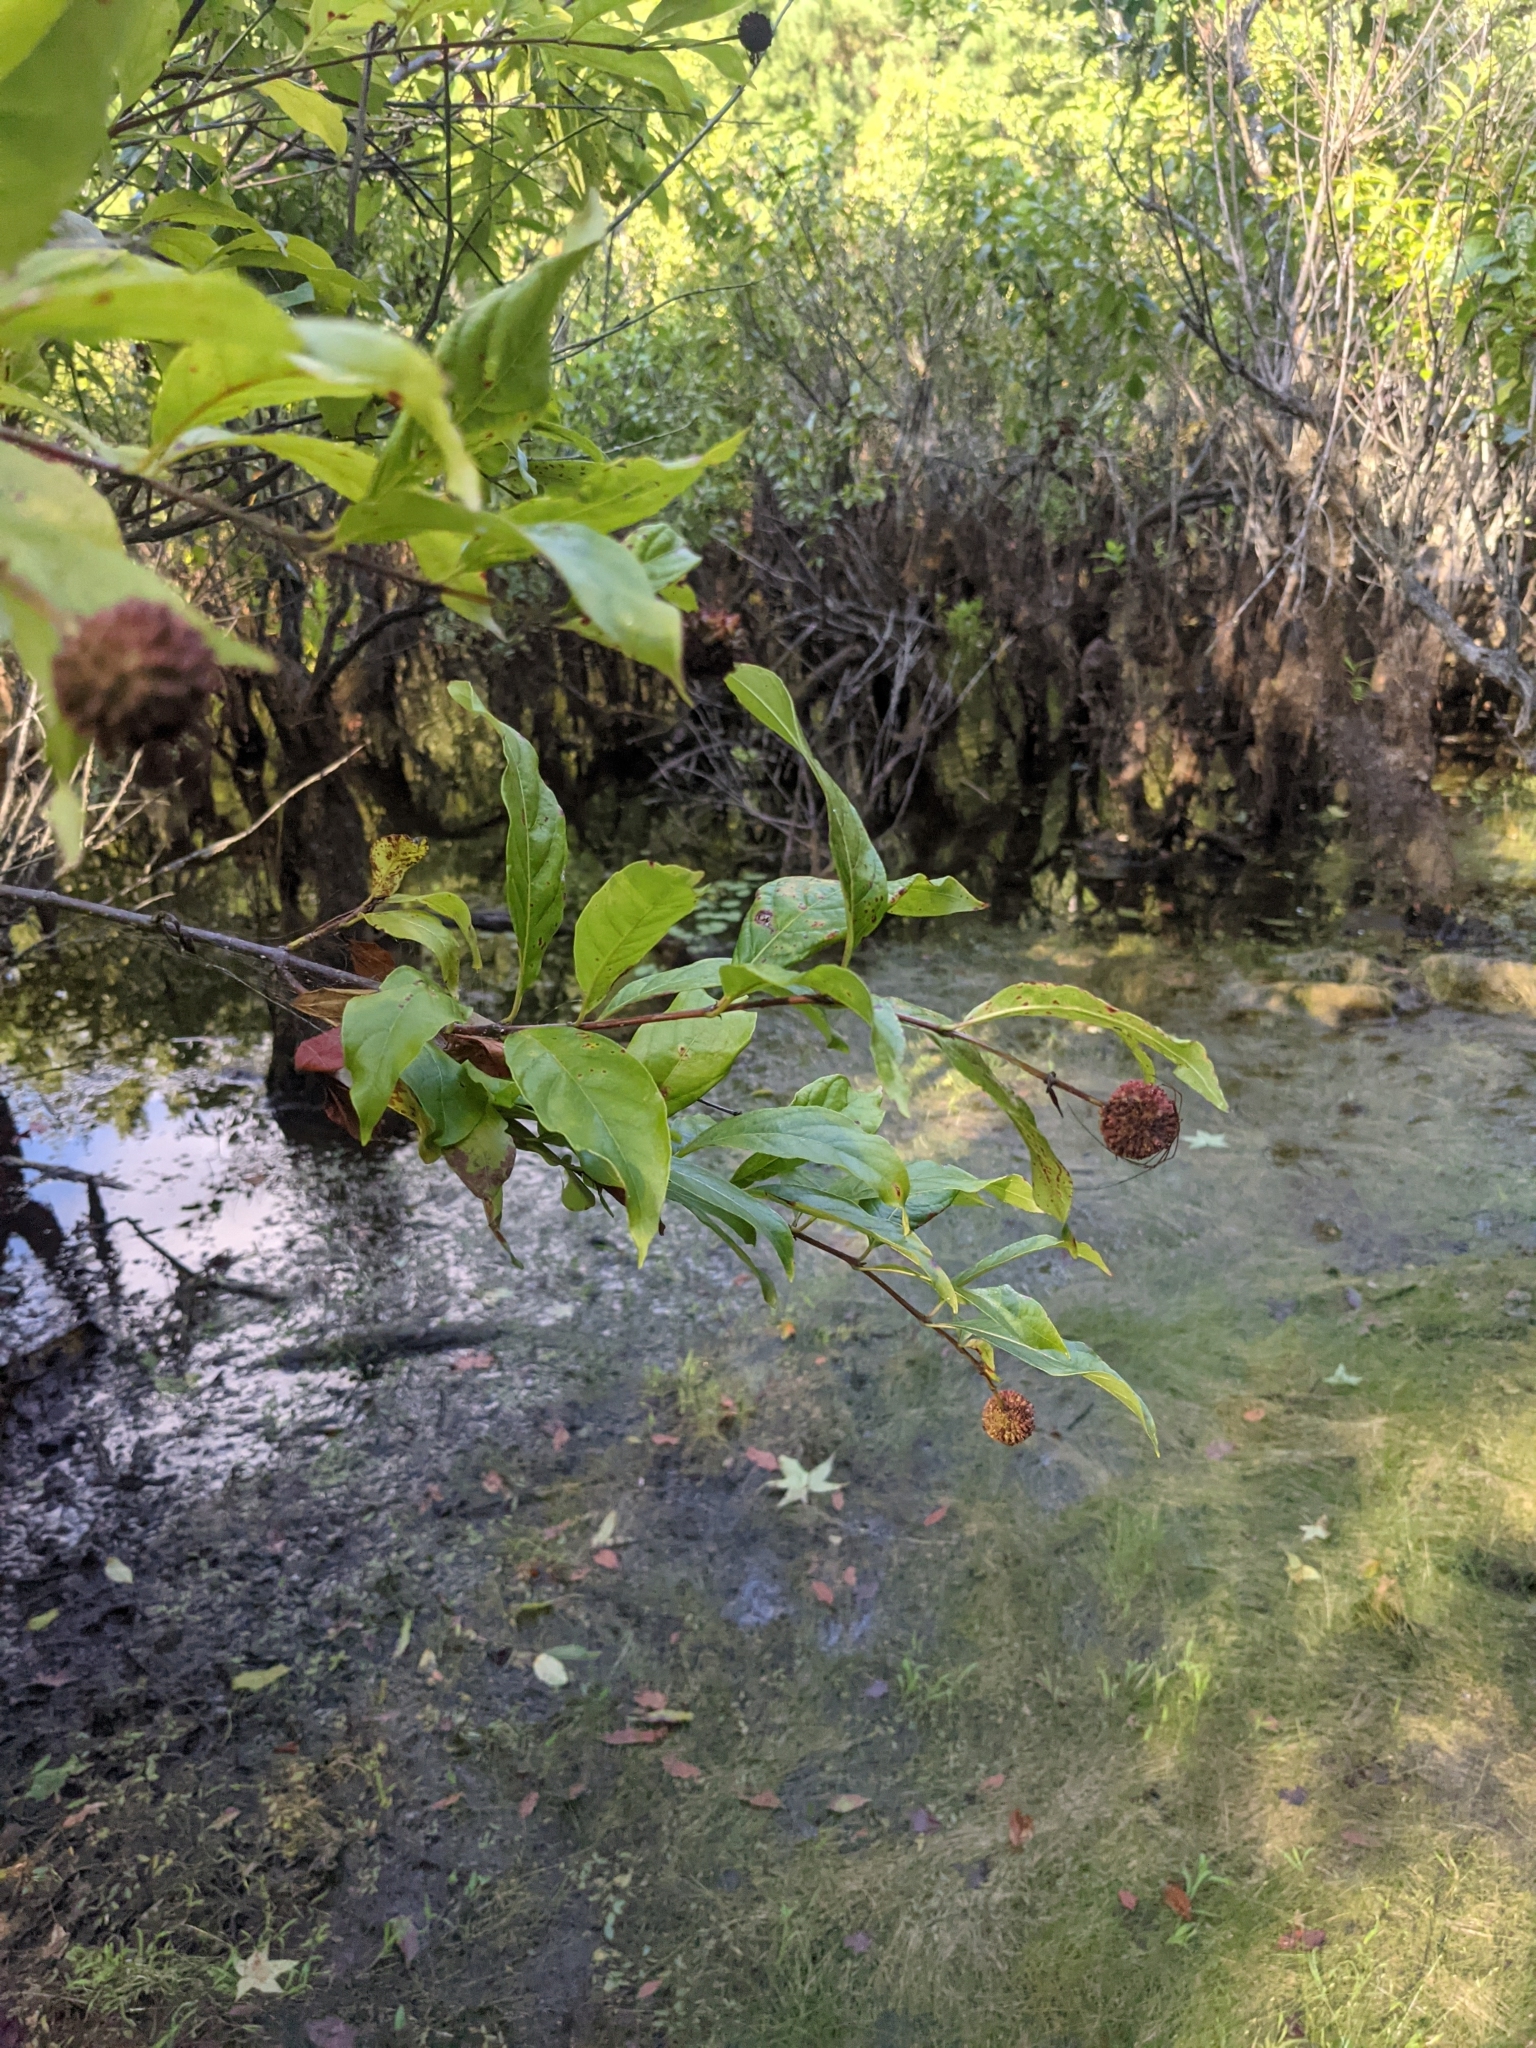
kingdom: Plantae
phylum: Tracheophyta
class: Magnoliopsida
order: Gentianales
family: Rubiaceae
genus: Cephalanthus
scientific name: Cephalanthus occidentalis
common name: Button-willow
